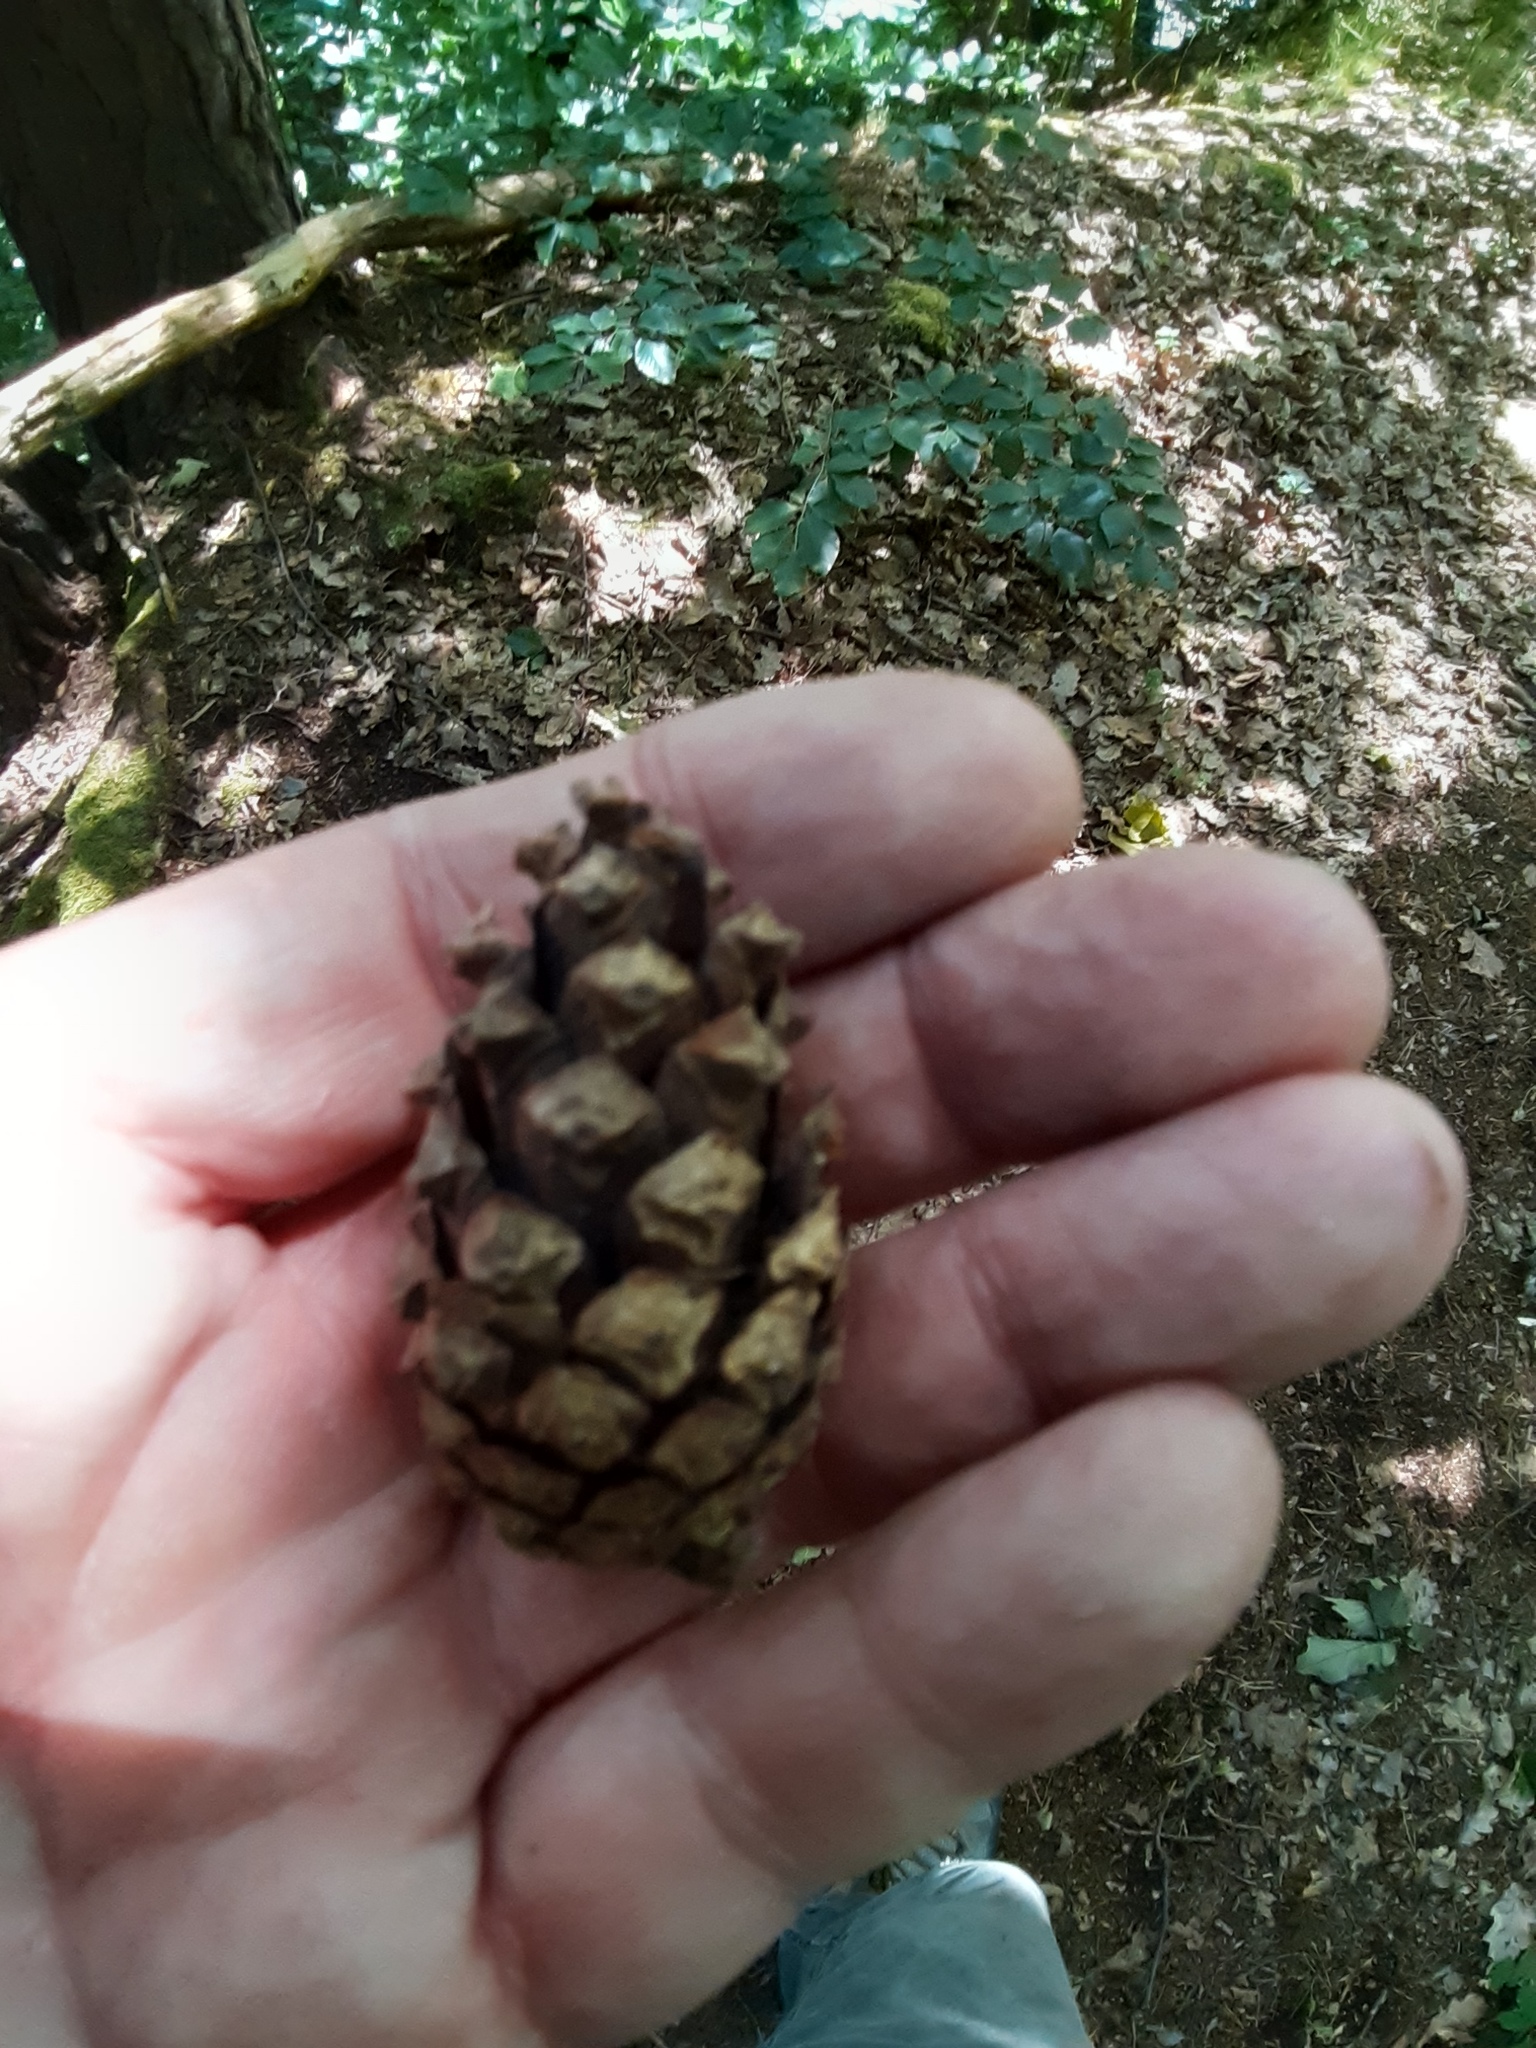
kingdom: Plantae
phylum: Tracheophyta
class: Pinopsida
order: Pinales
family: Pinaceae
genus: Pinus
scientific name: Pinus sylvestris
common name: Scots pine
